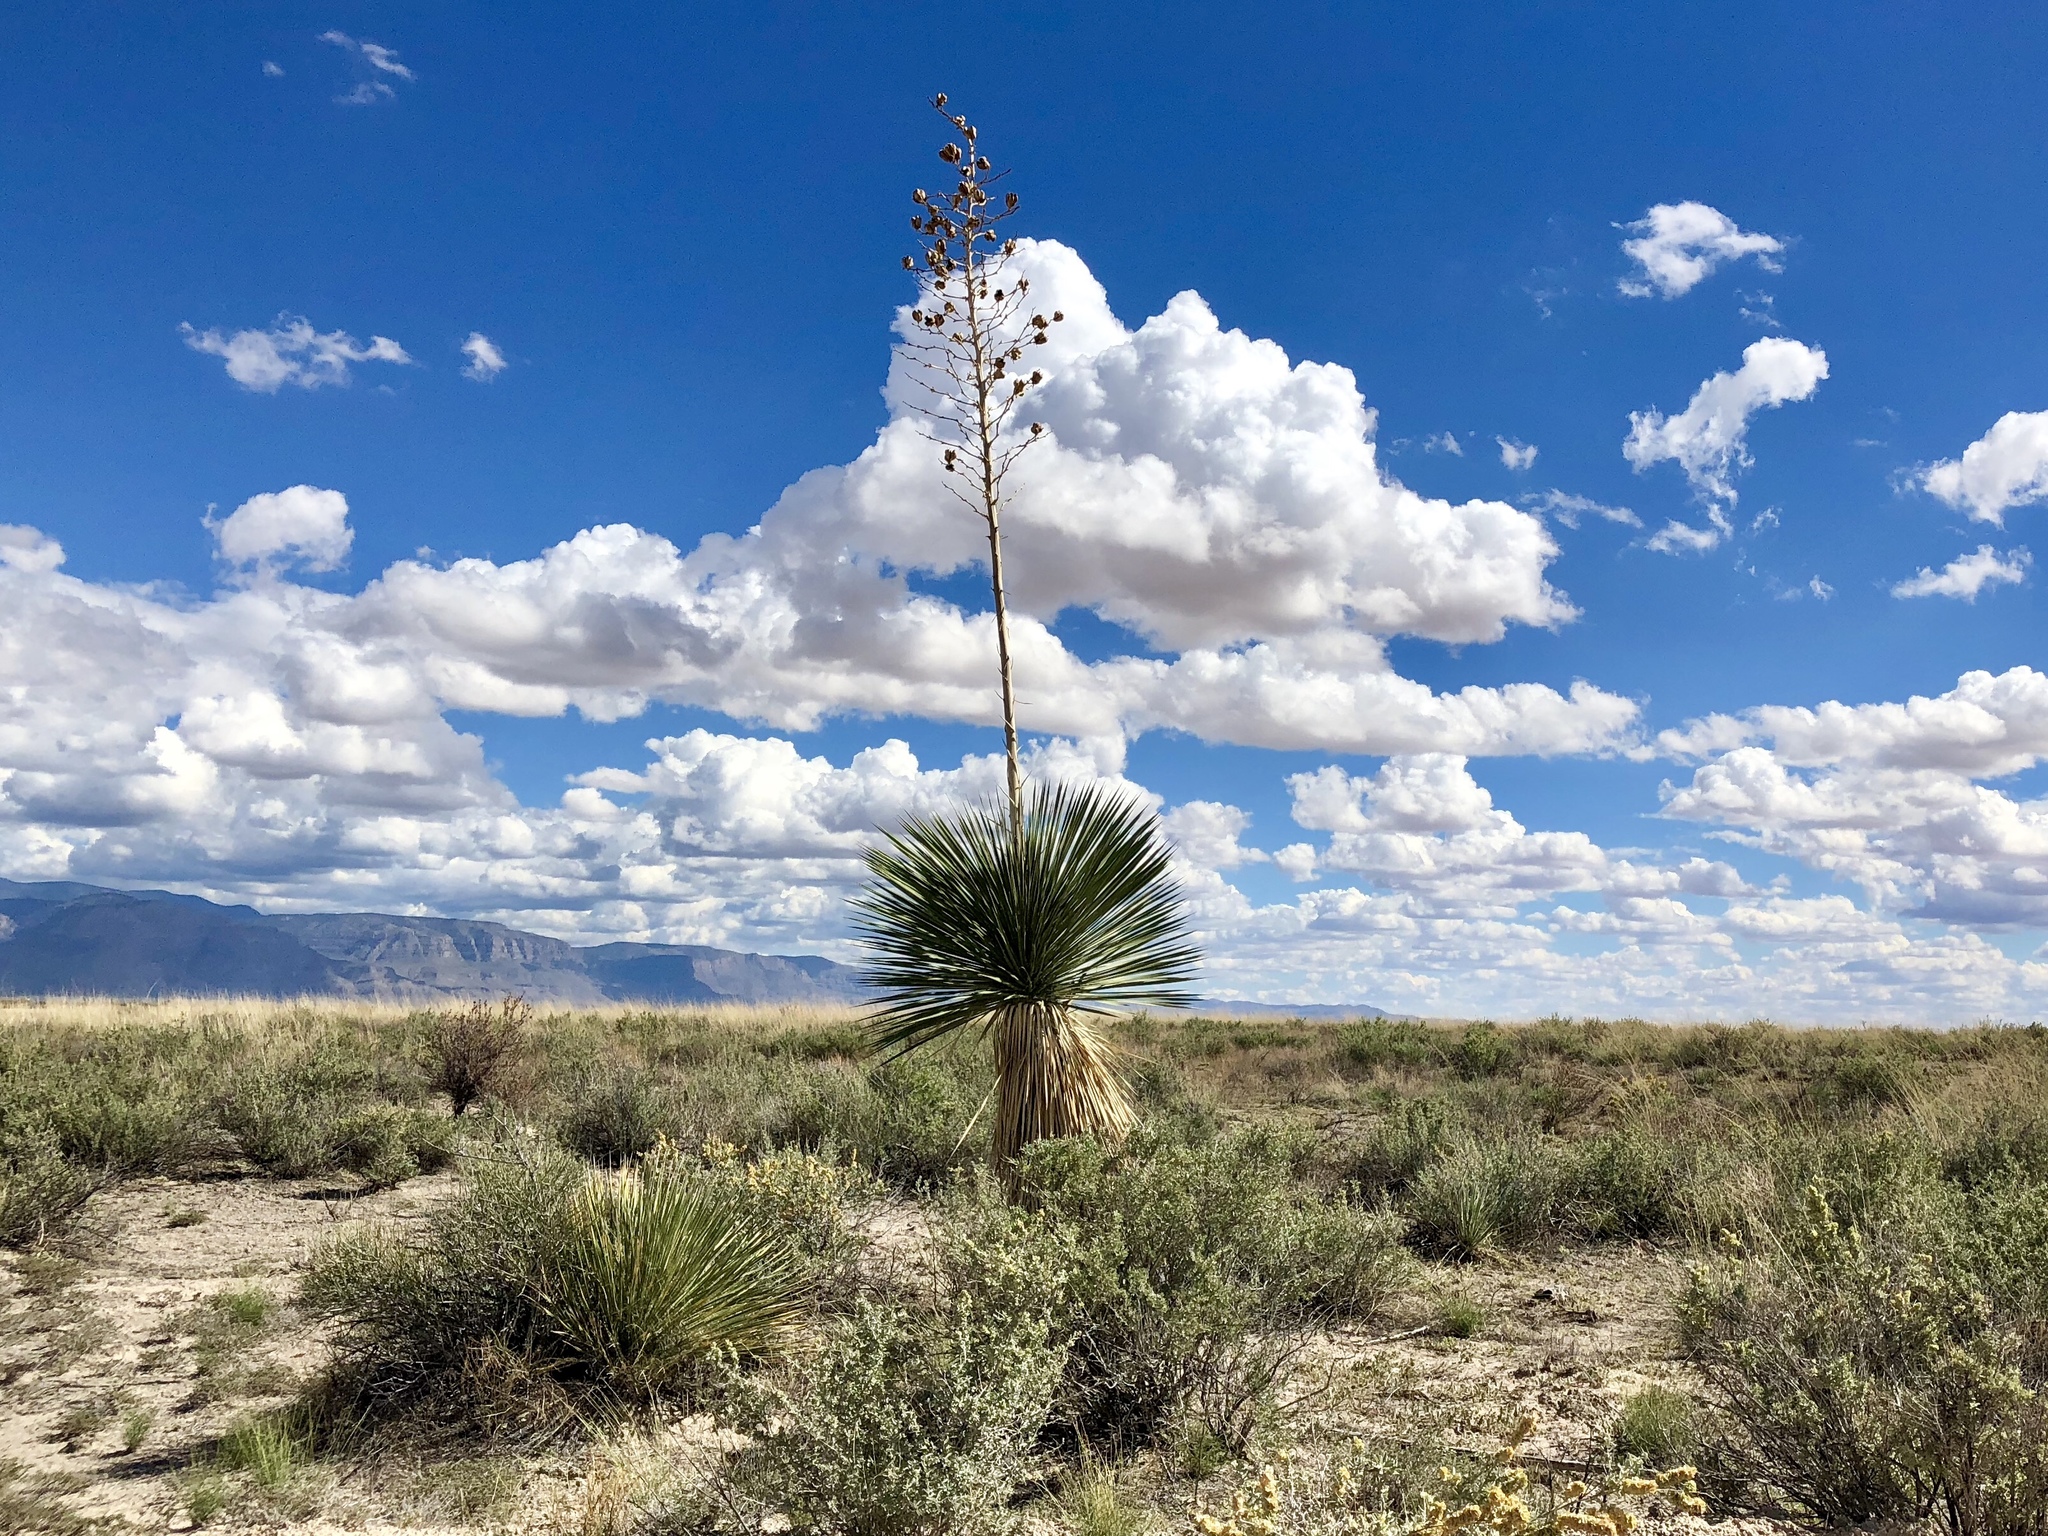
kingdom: Plantae
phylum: Tracheophyta
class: Liliopsida
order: Asparagales
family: Asparagaceae
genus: Yucca
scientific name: Yucca elata
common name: Palmella
